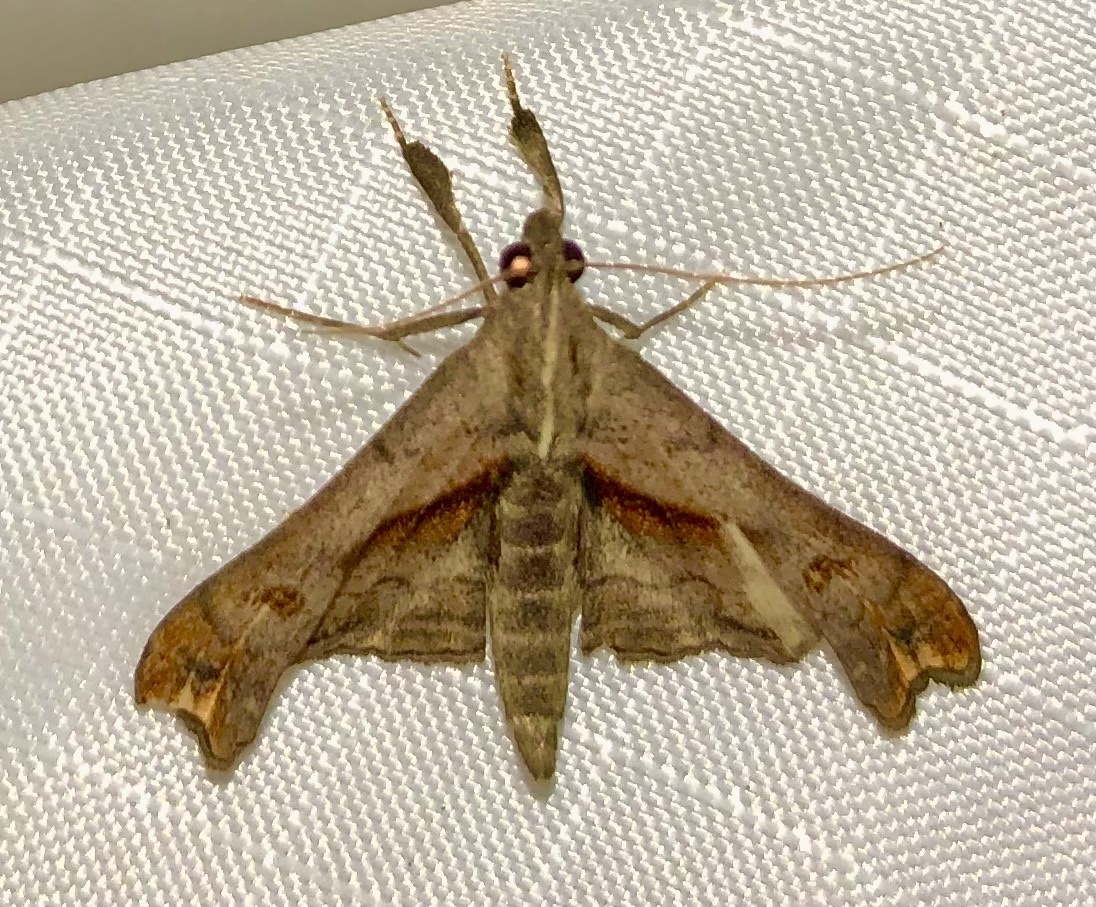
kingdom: Animalia
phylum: Arthropoda
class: Insecta
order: Lepidoptera
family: Erebidae
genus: Palthis
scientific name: Palthis angulalis
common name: Dark-spotted palthis moth
